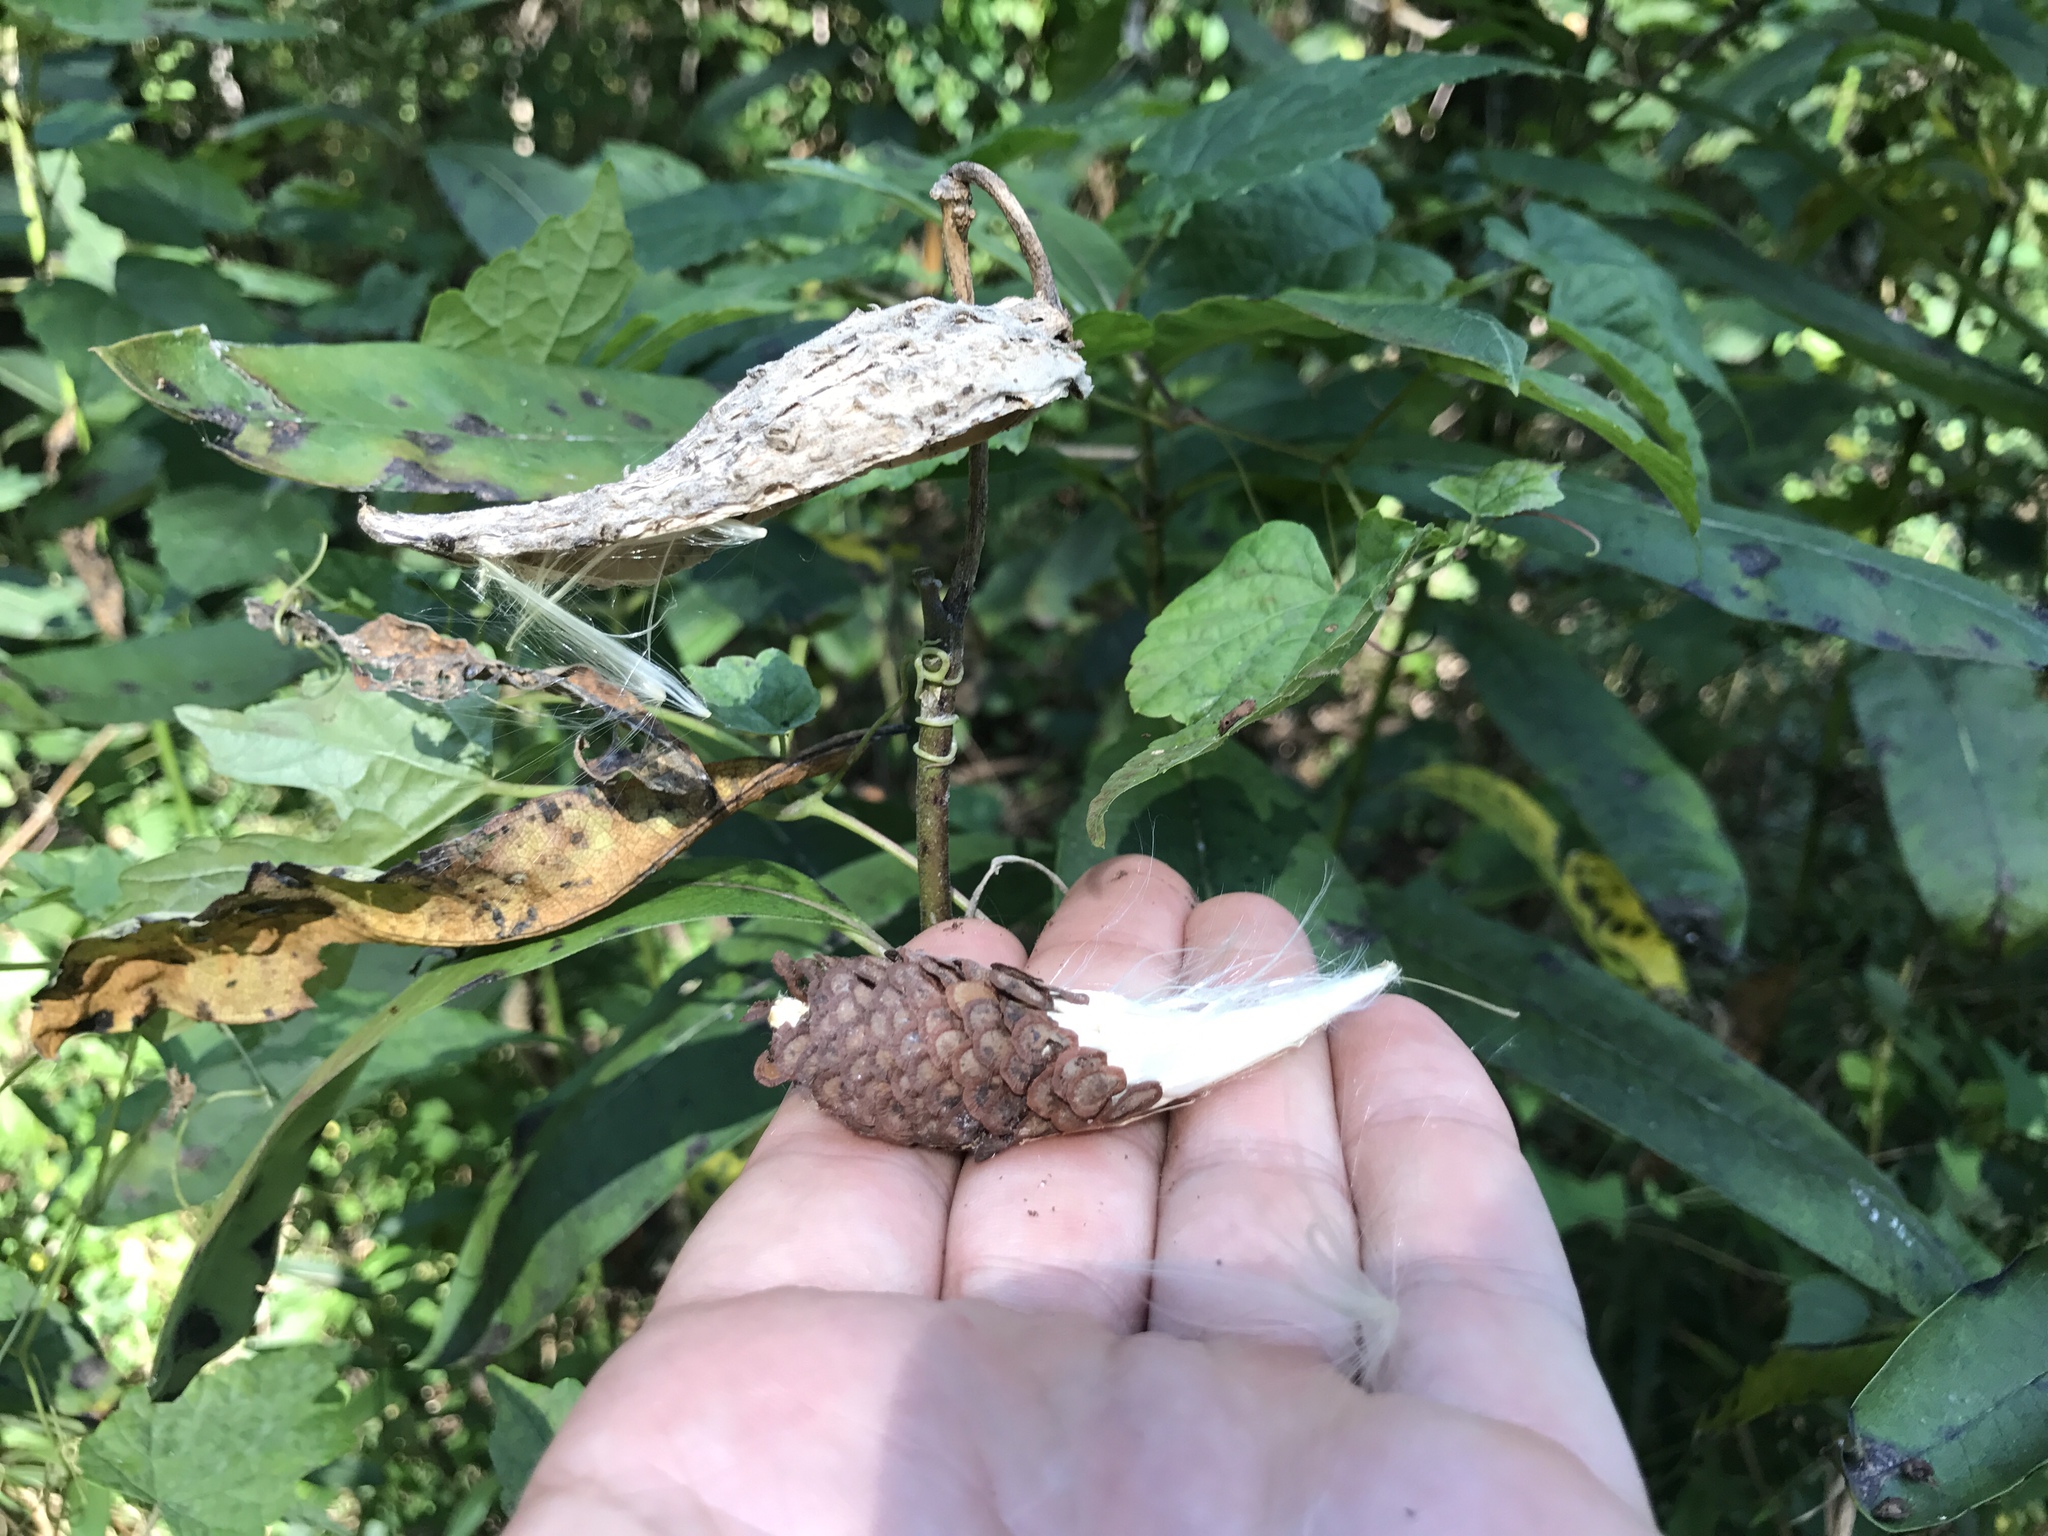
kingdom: Plantae
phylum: Tracheophyta
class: Magnoliopsida
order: Gentianales
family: Apocynaceae
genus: Asclepias
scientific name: Asclepias syriaca
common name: Common milkweed
